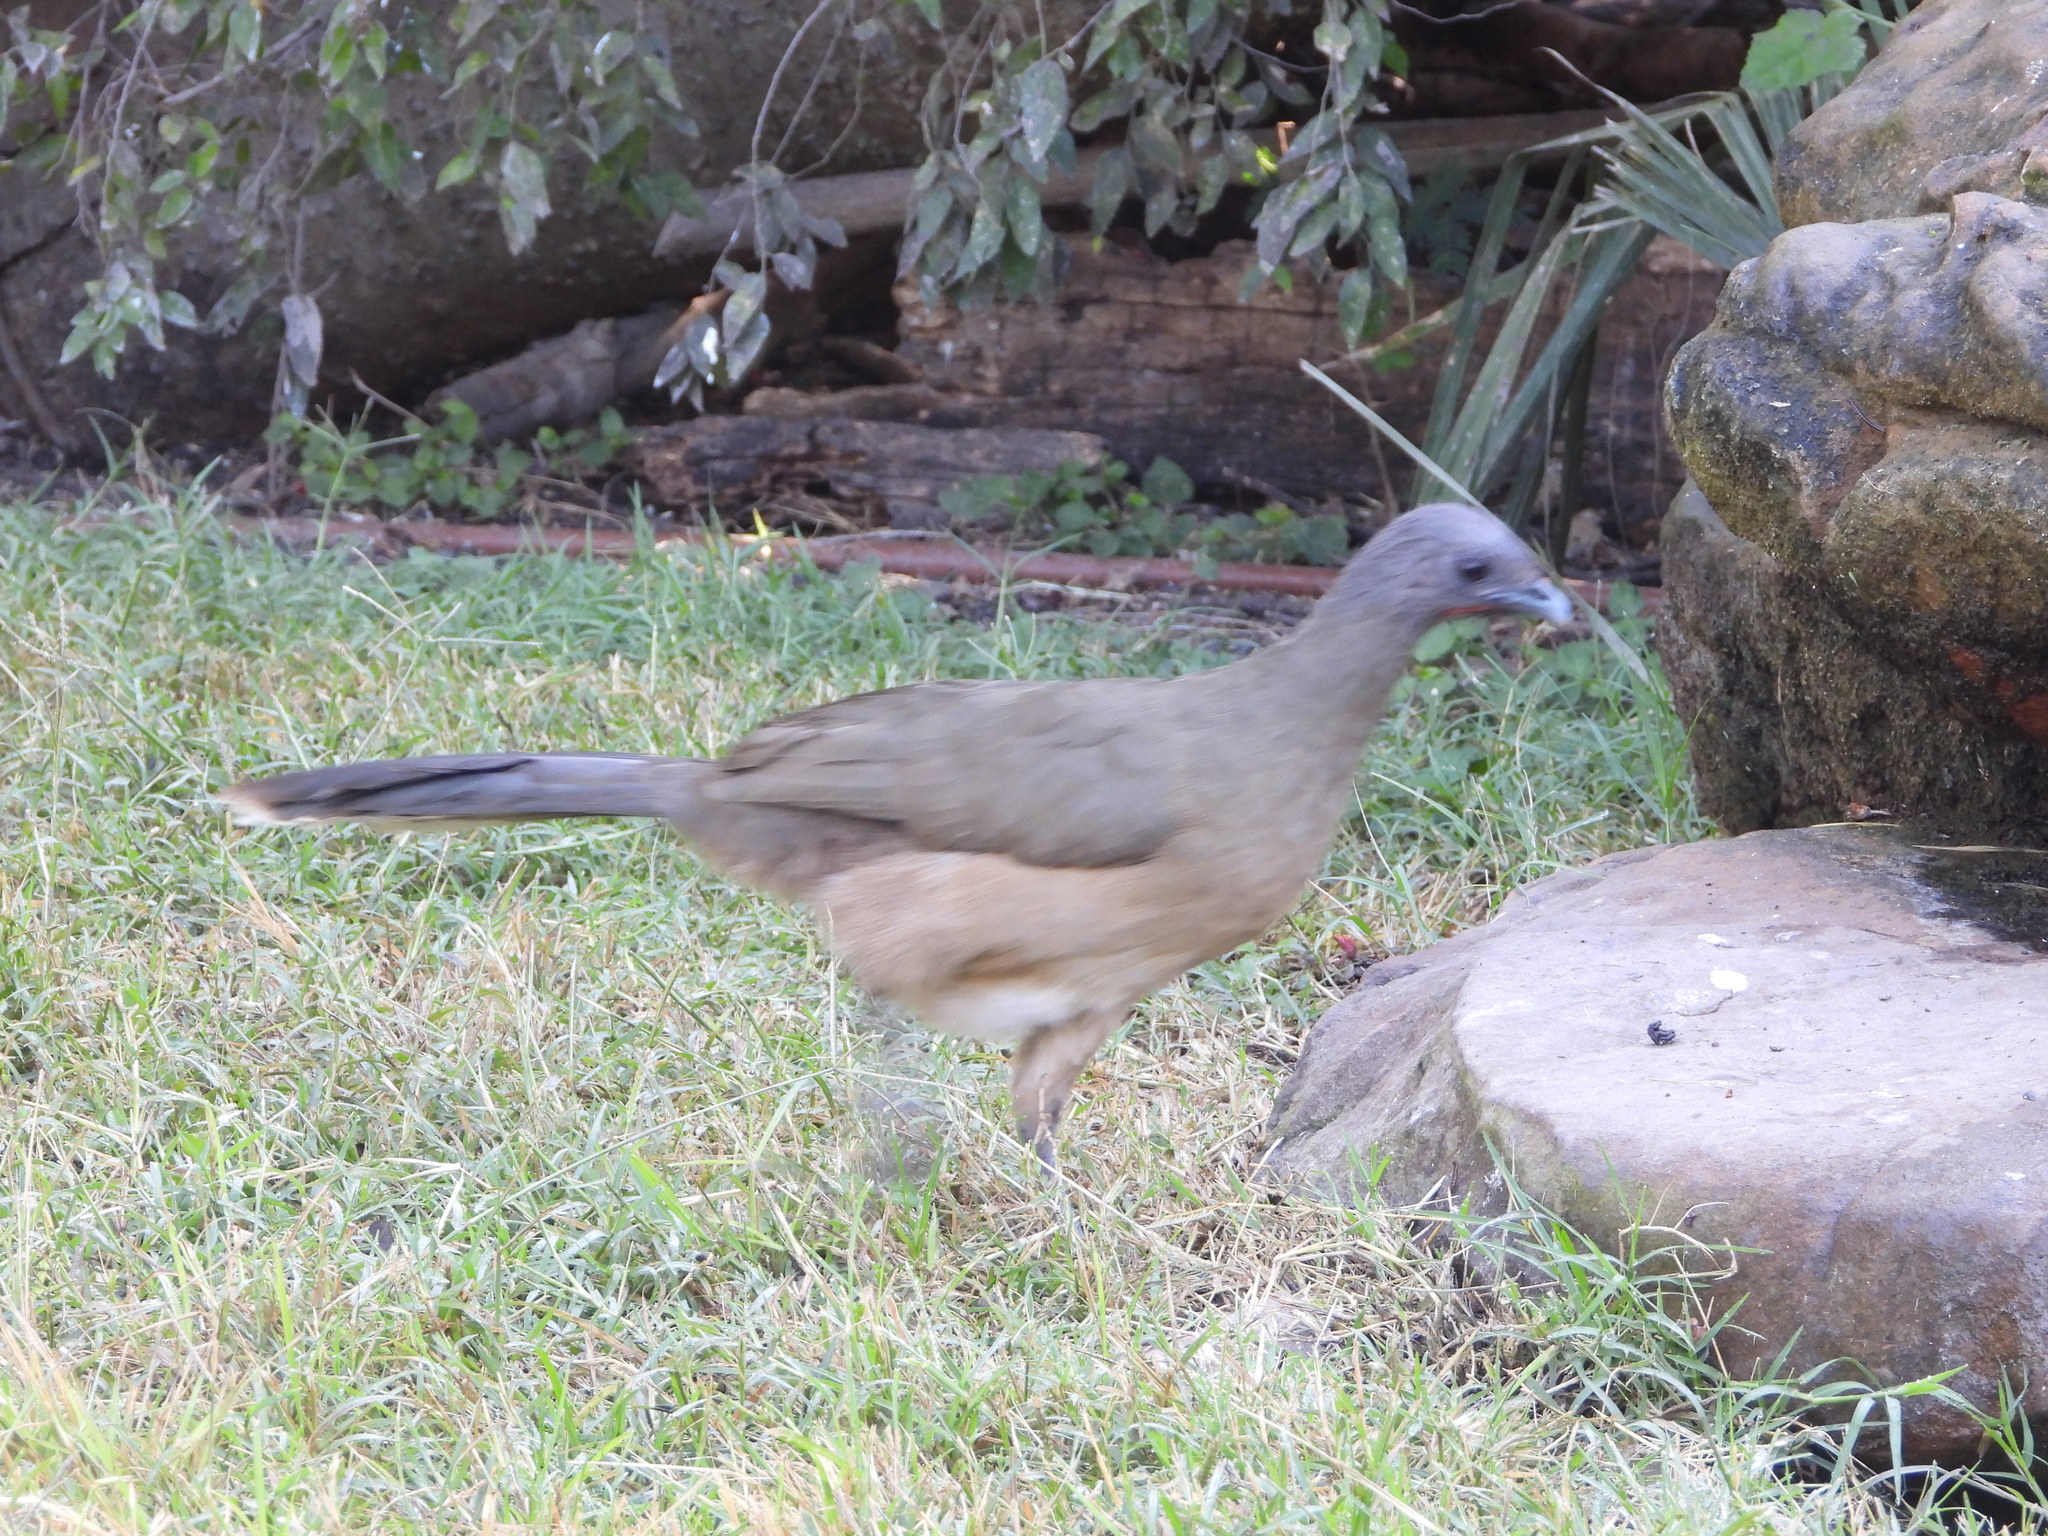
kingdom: Animalia
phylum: Chordata
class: Aves
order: Galliformes
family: Cracidae
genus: Ortalis
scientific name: Ortalis vetula
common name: Plain chachalaca
